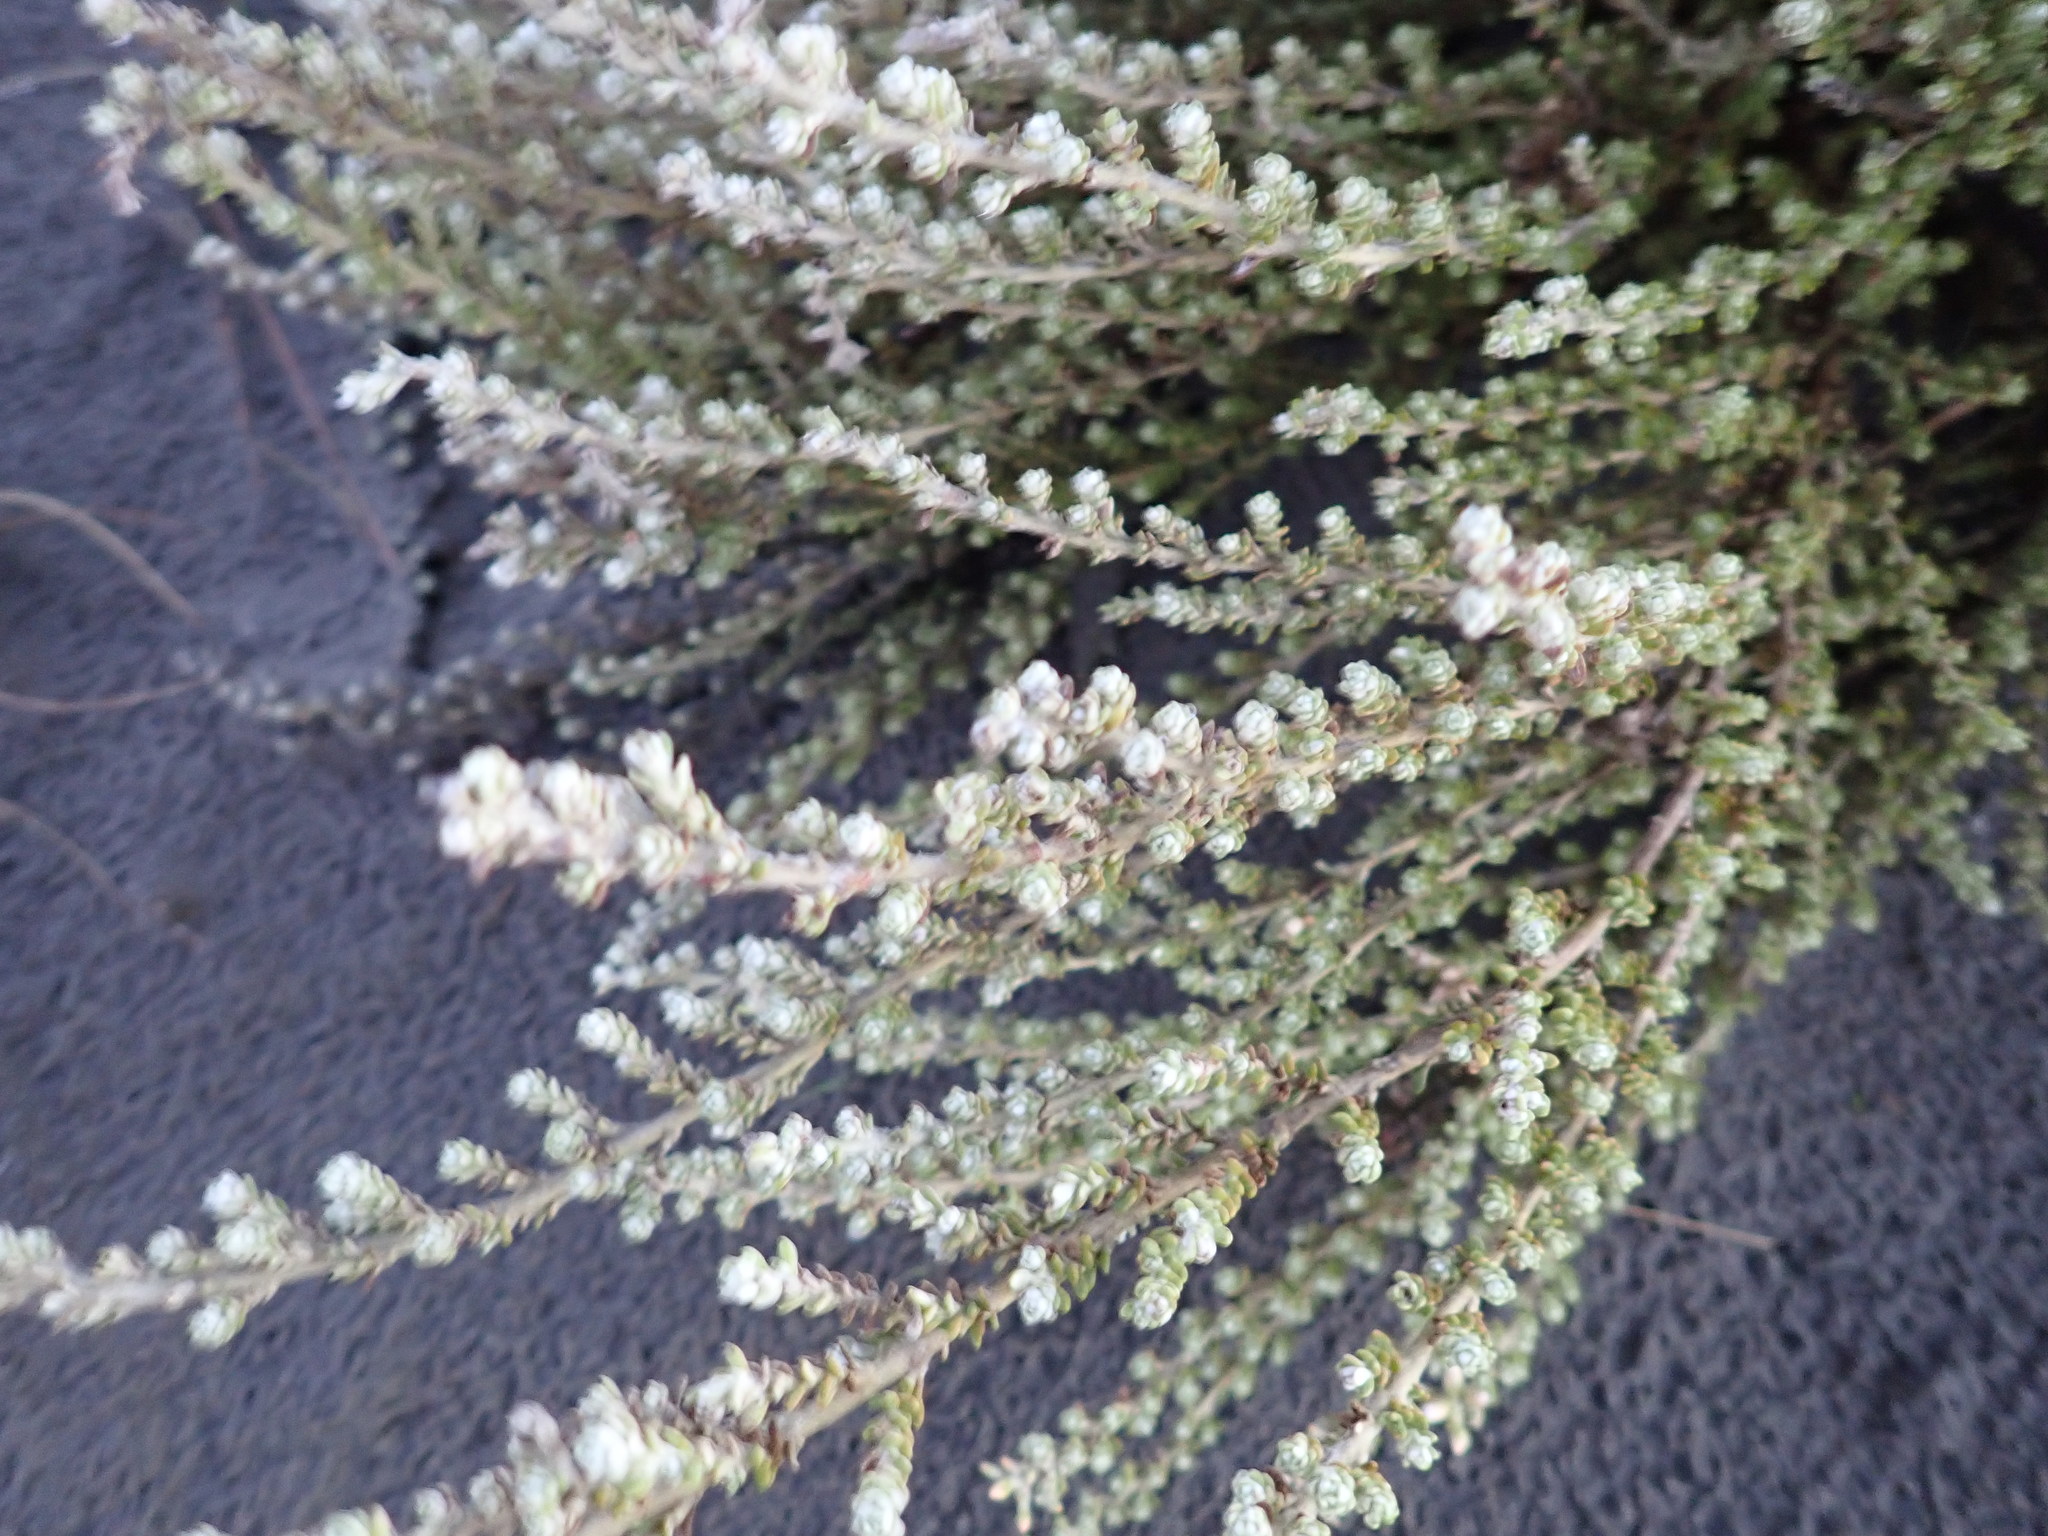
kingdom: Plantae
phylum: Tracheophyta
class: Magnoliopsida
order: Asterales
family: Asteraceae
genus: Ozothamnus
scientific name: Ozothamnus leptophyllus
